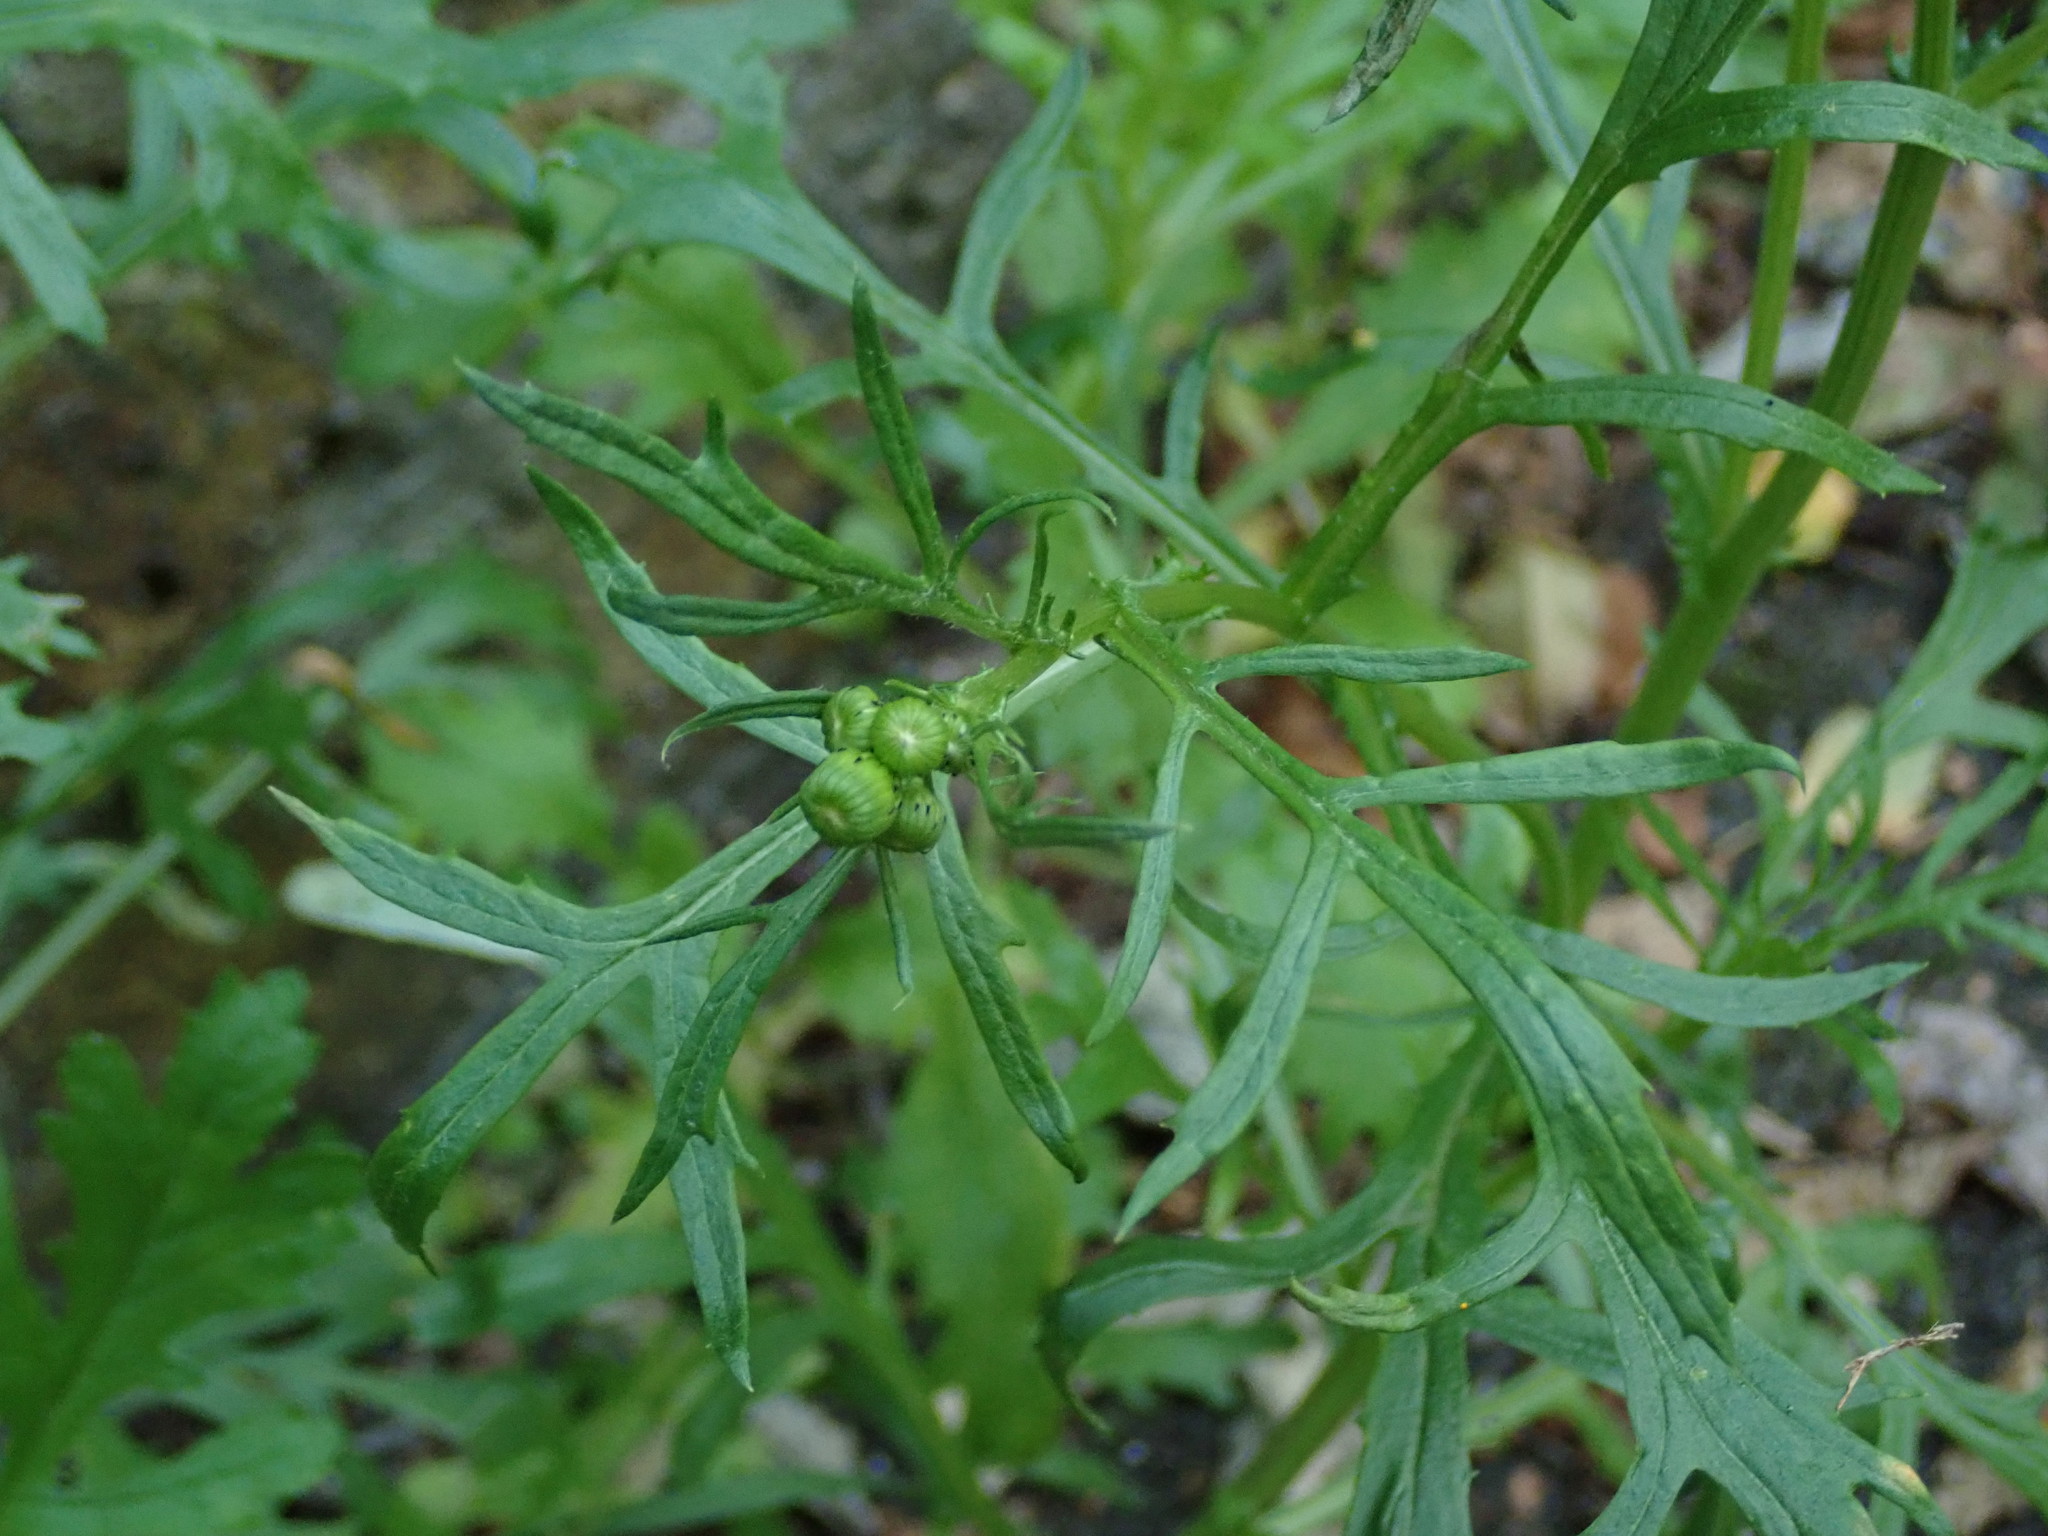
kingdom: Plantae
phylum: Tracheophyta
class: Magnoliopsida
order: Asterales
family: Asteraceae
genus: Senecio
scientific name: Senecio squalidus
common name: Oxford ragwort
